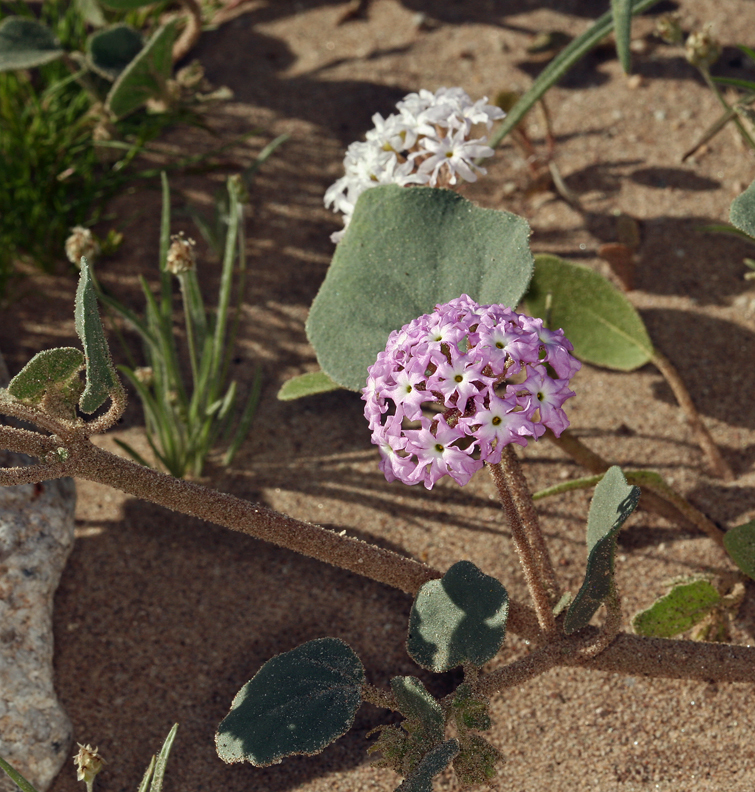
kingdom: Plantae
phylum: Tracheophyta
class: Magnoliopsida
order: Caryophyllales
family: Nyctaginaceae
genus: Abronia
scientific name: Abronia villosa
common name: Desert sand-verbena
